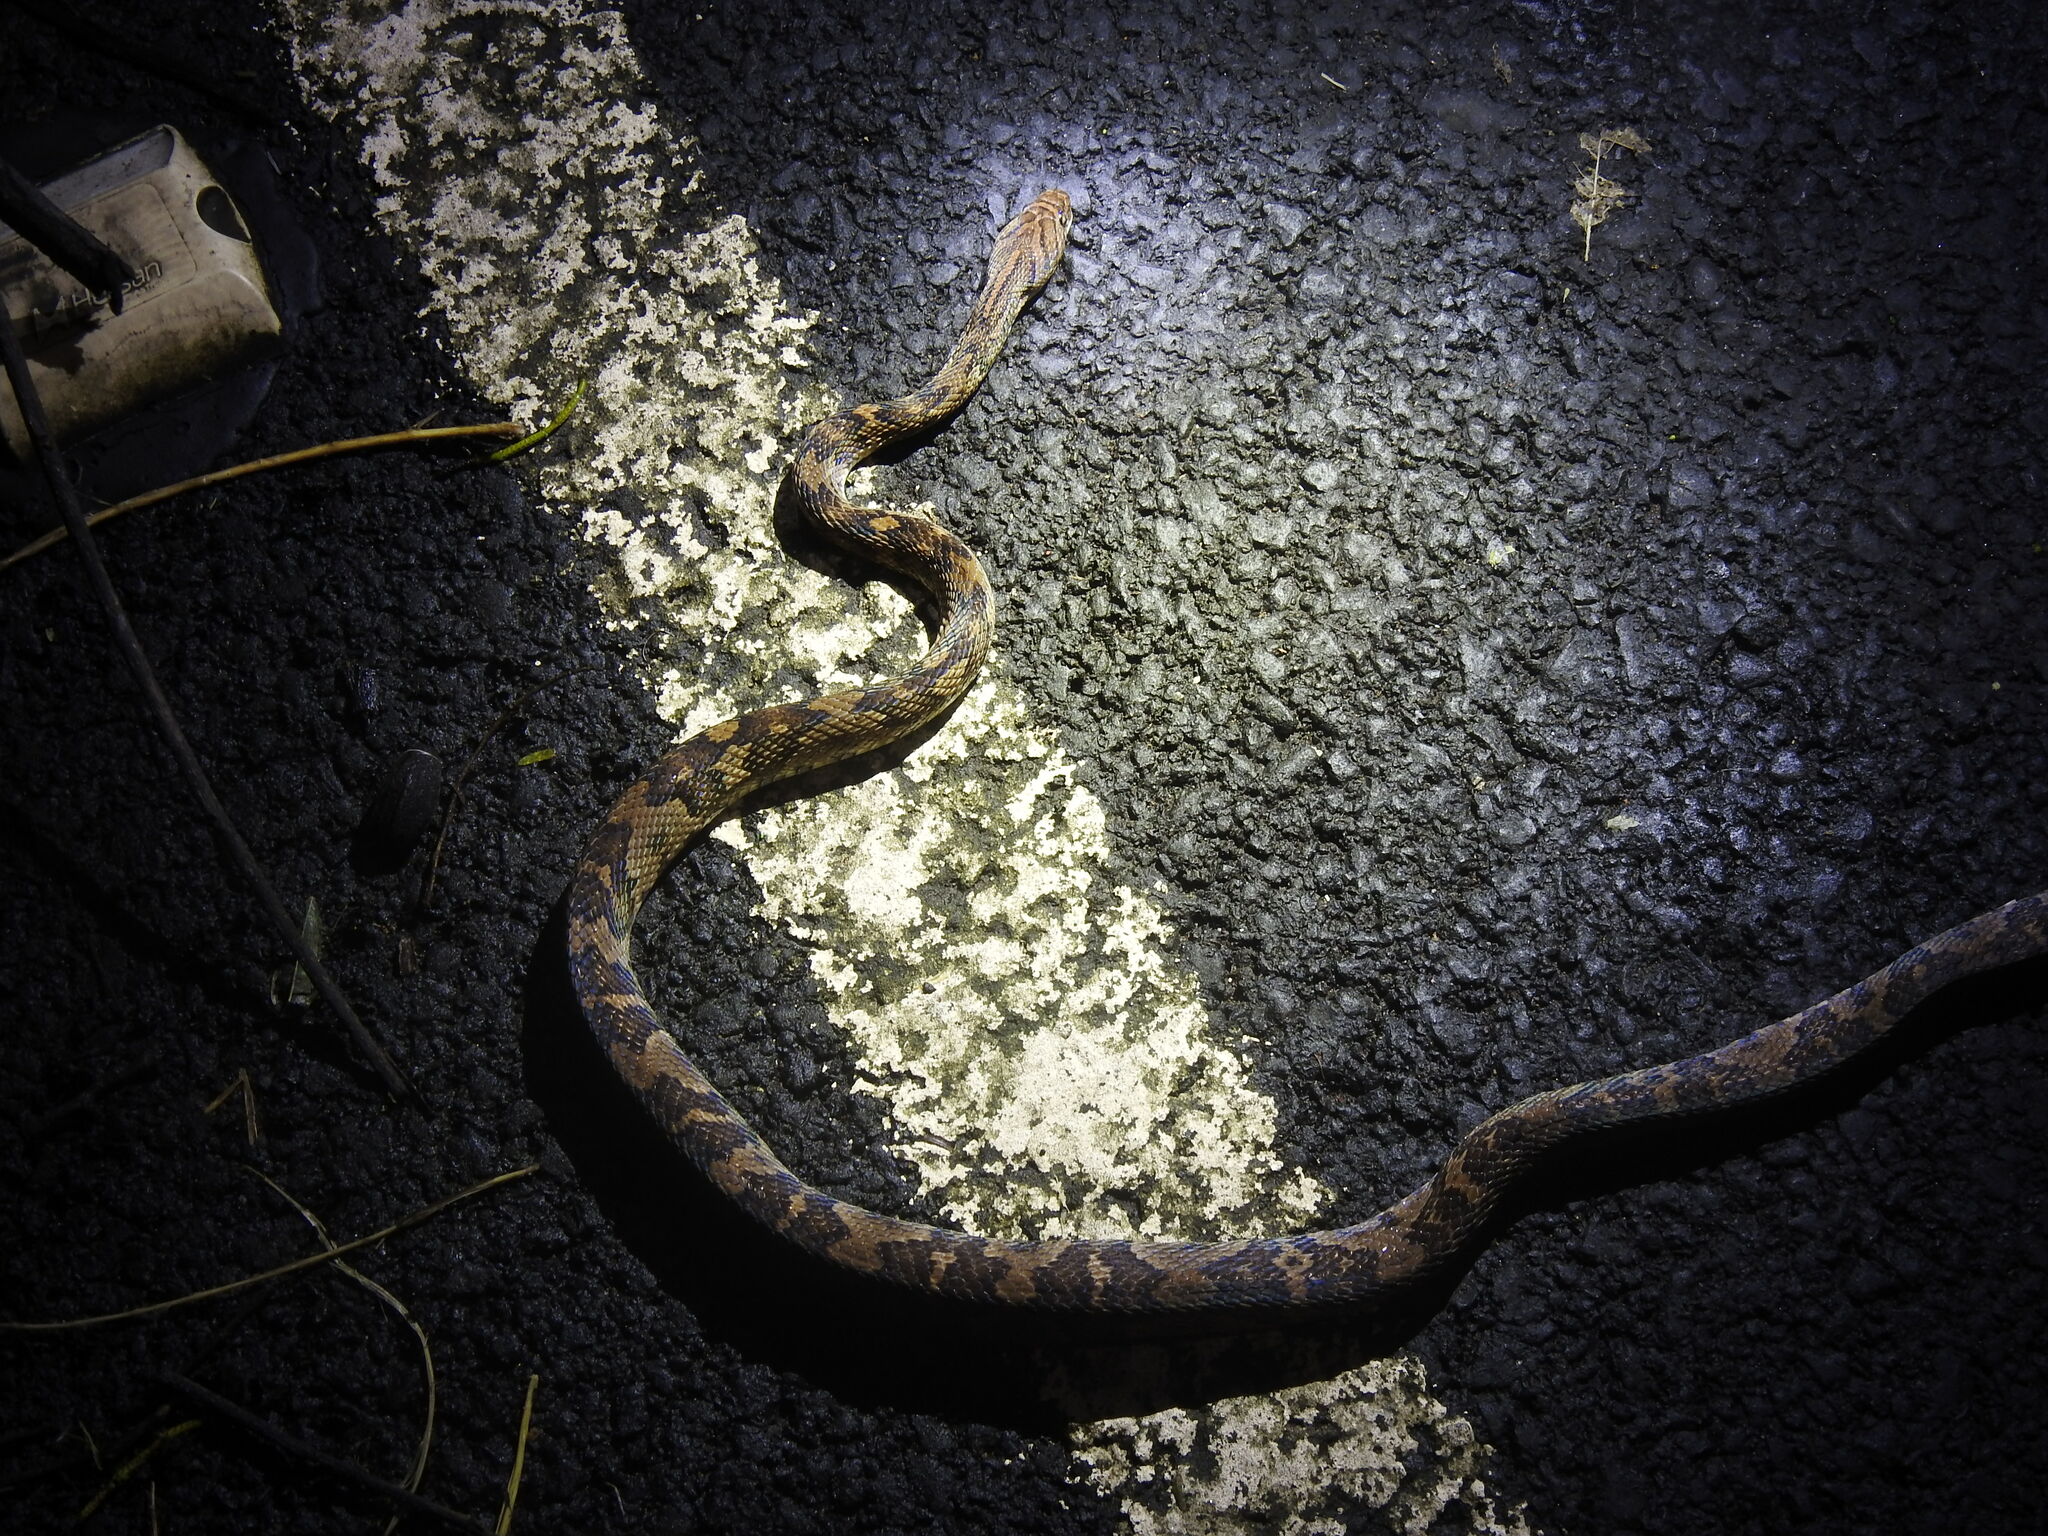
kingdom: Animalia
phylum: Chordata
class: Squamata
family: Colubridae
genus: Trimorphodon
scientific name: Trimorphodon quadruplex
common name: Central american lyre snake
